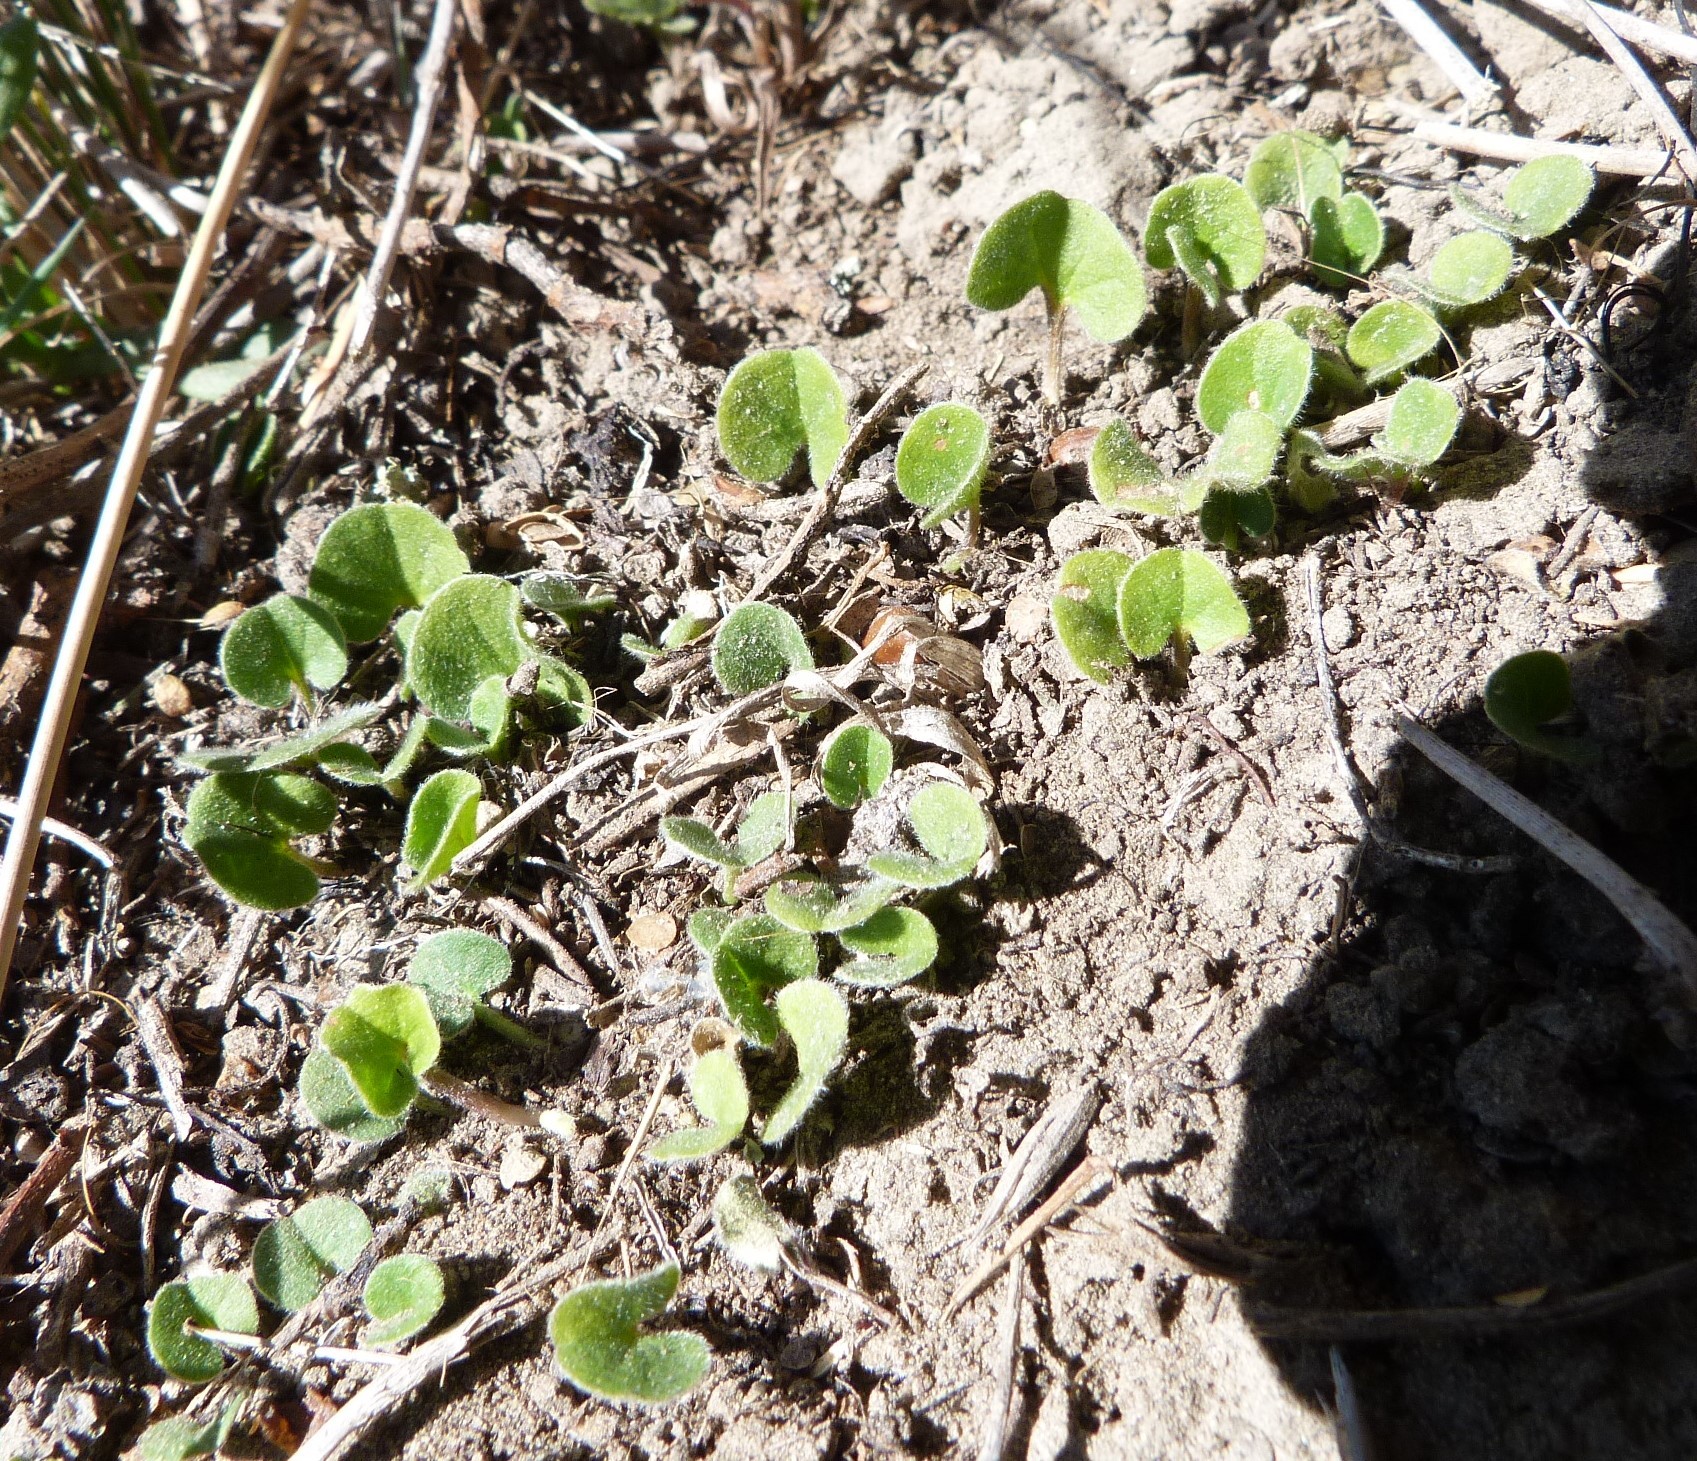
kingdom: Plantae
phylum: Tracheophyta
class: Magnoliopsida
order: Solanales
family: Convolvulaceae
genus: Dichondra
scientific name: Dichondra repens
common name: Kidneyweed
